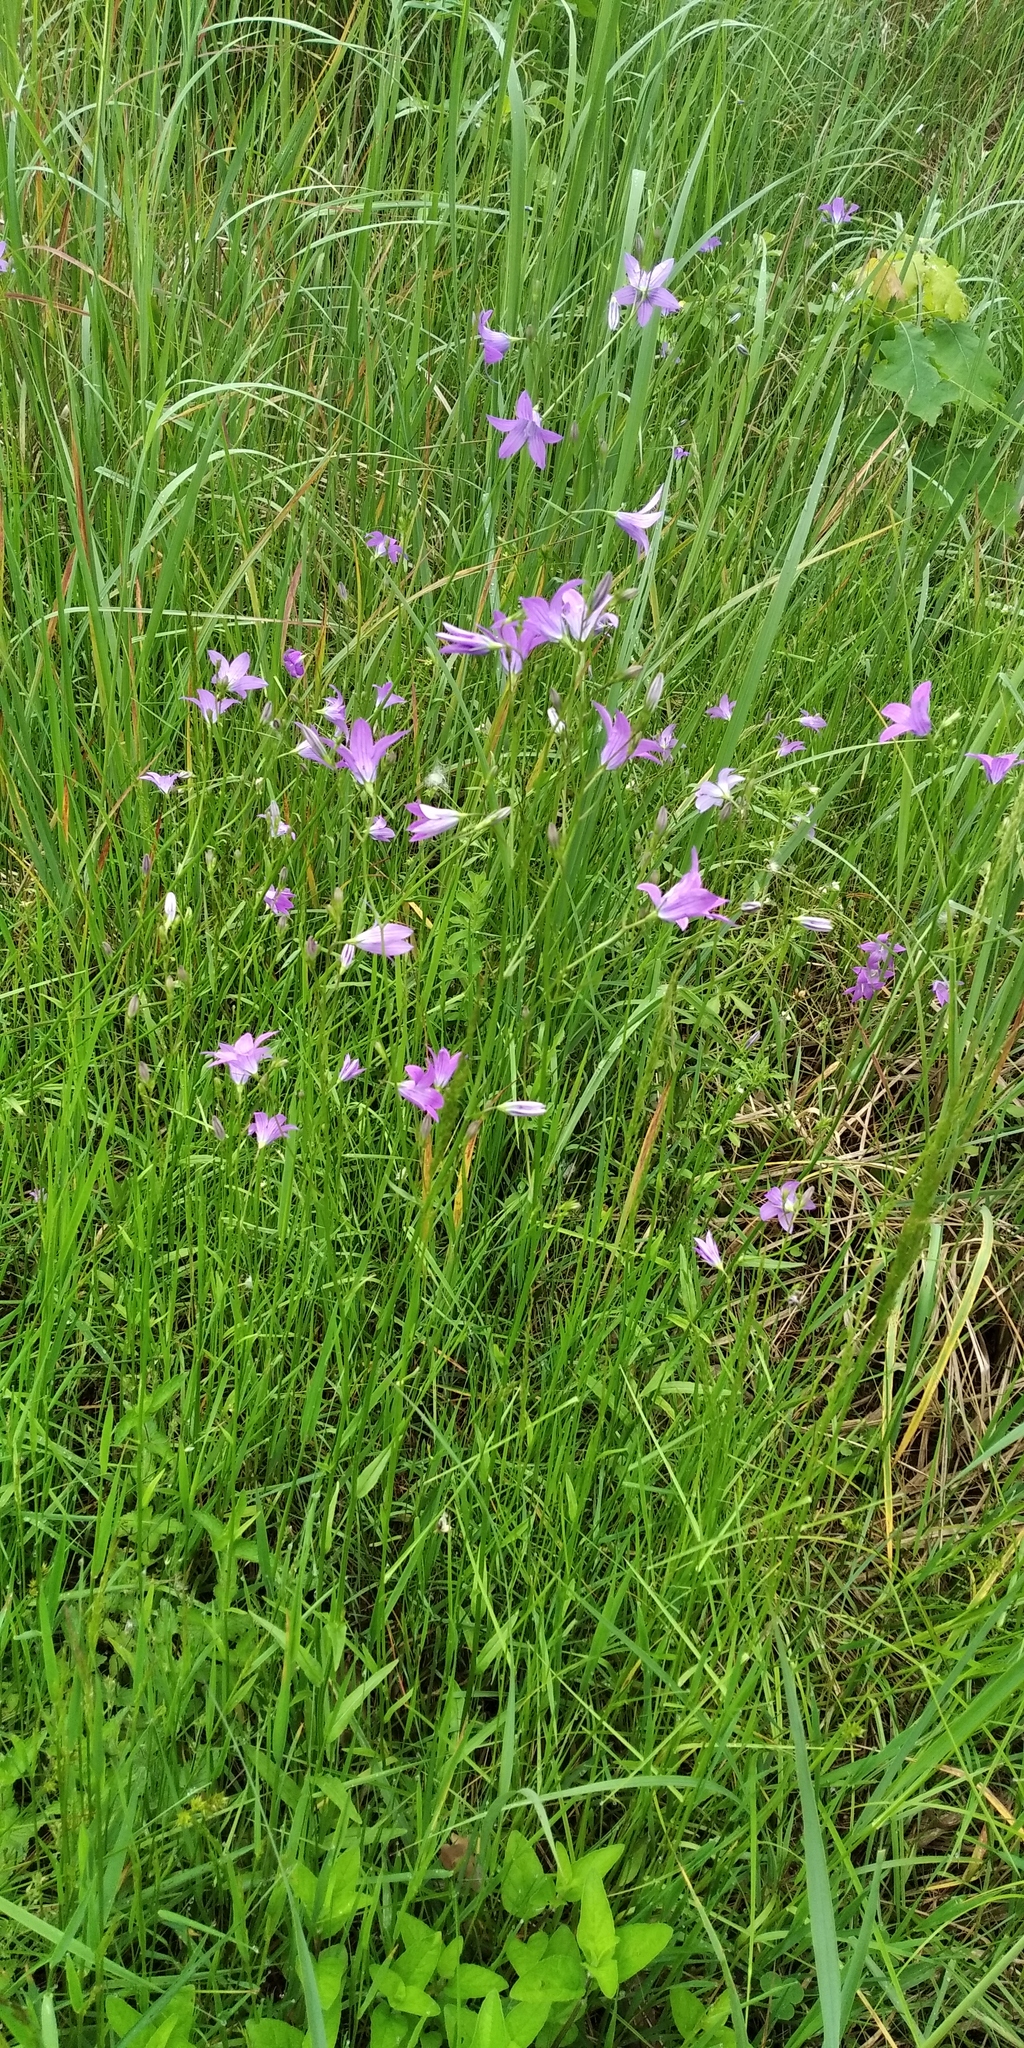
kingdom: Plantae
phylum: Tracheophyta
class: Magnoliopsida
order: Asterales
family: Campanulaceae
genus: Campanula
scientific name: Campanula patula
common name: Spreading bellflower
